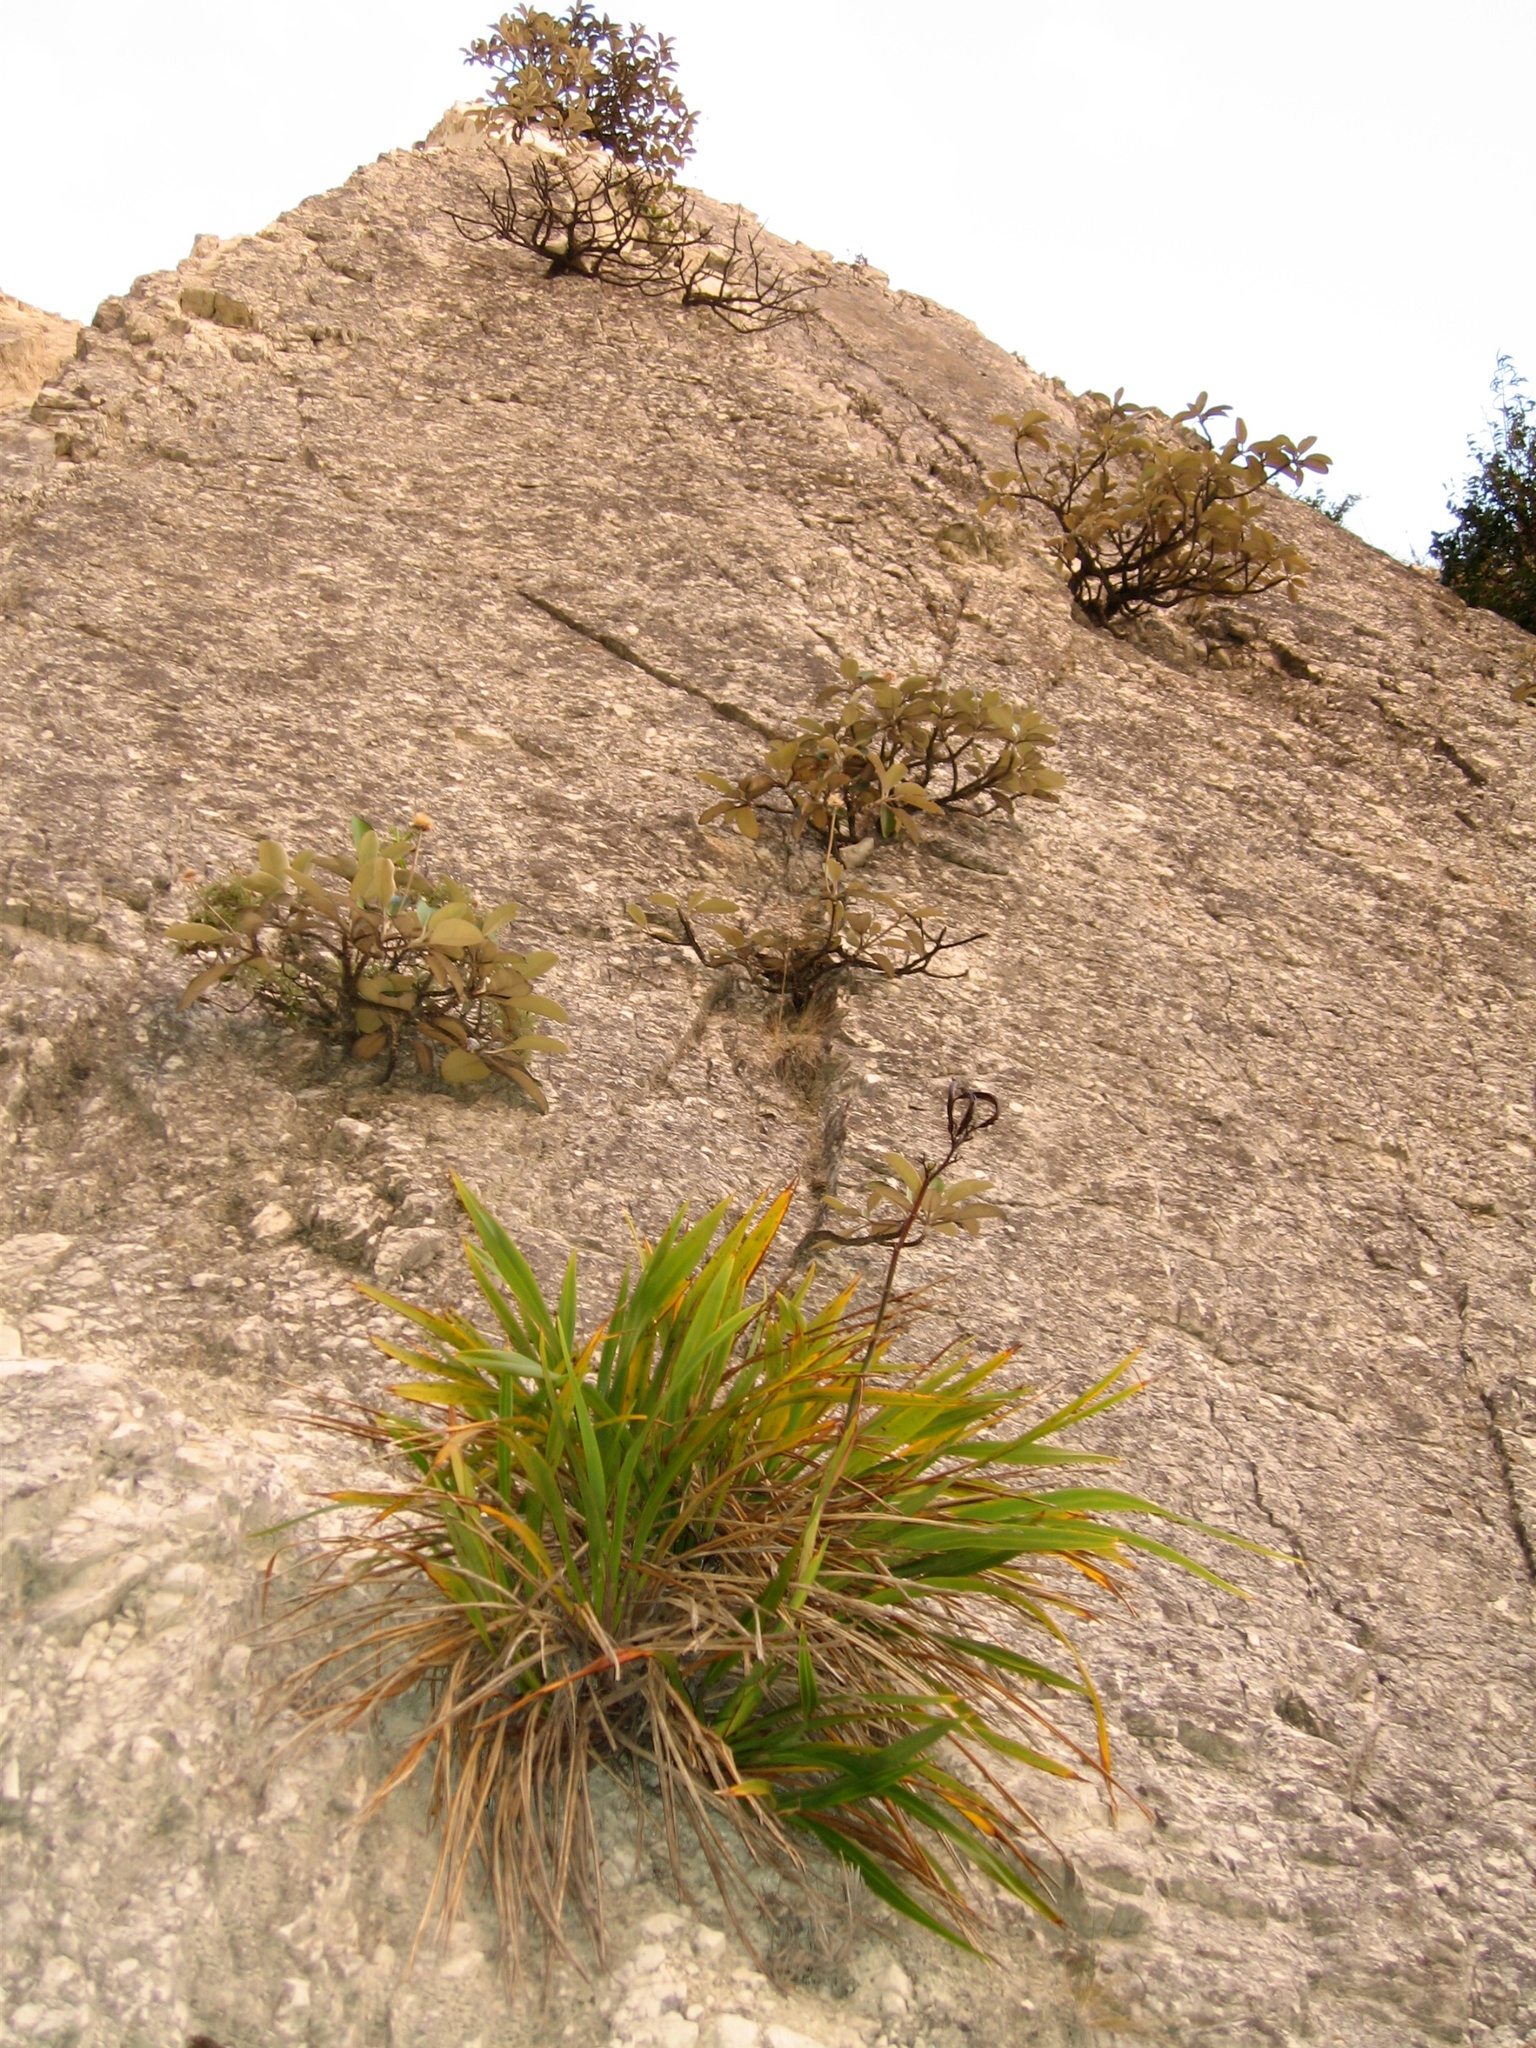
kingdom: Plantae
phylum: Tracheophyta
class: Liliopsida
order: Asparagales
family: Asphodelaceae
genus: Phormium
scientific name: Phormium colensoi
